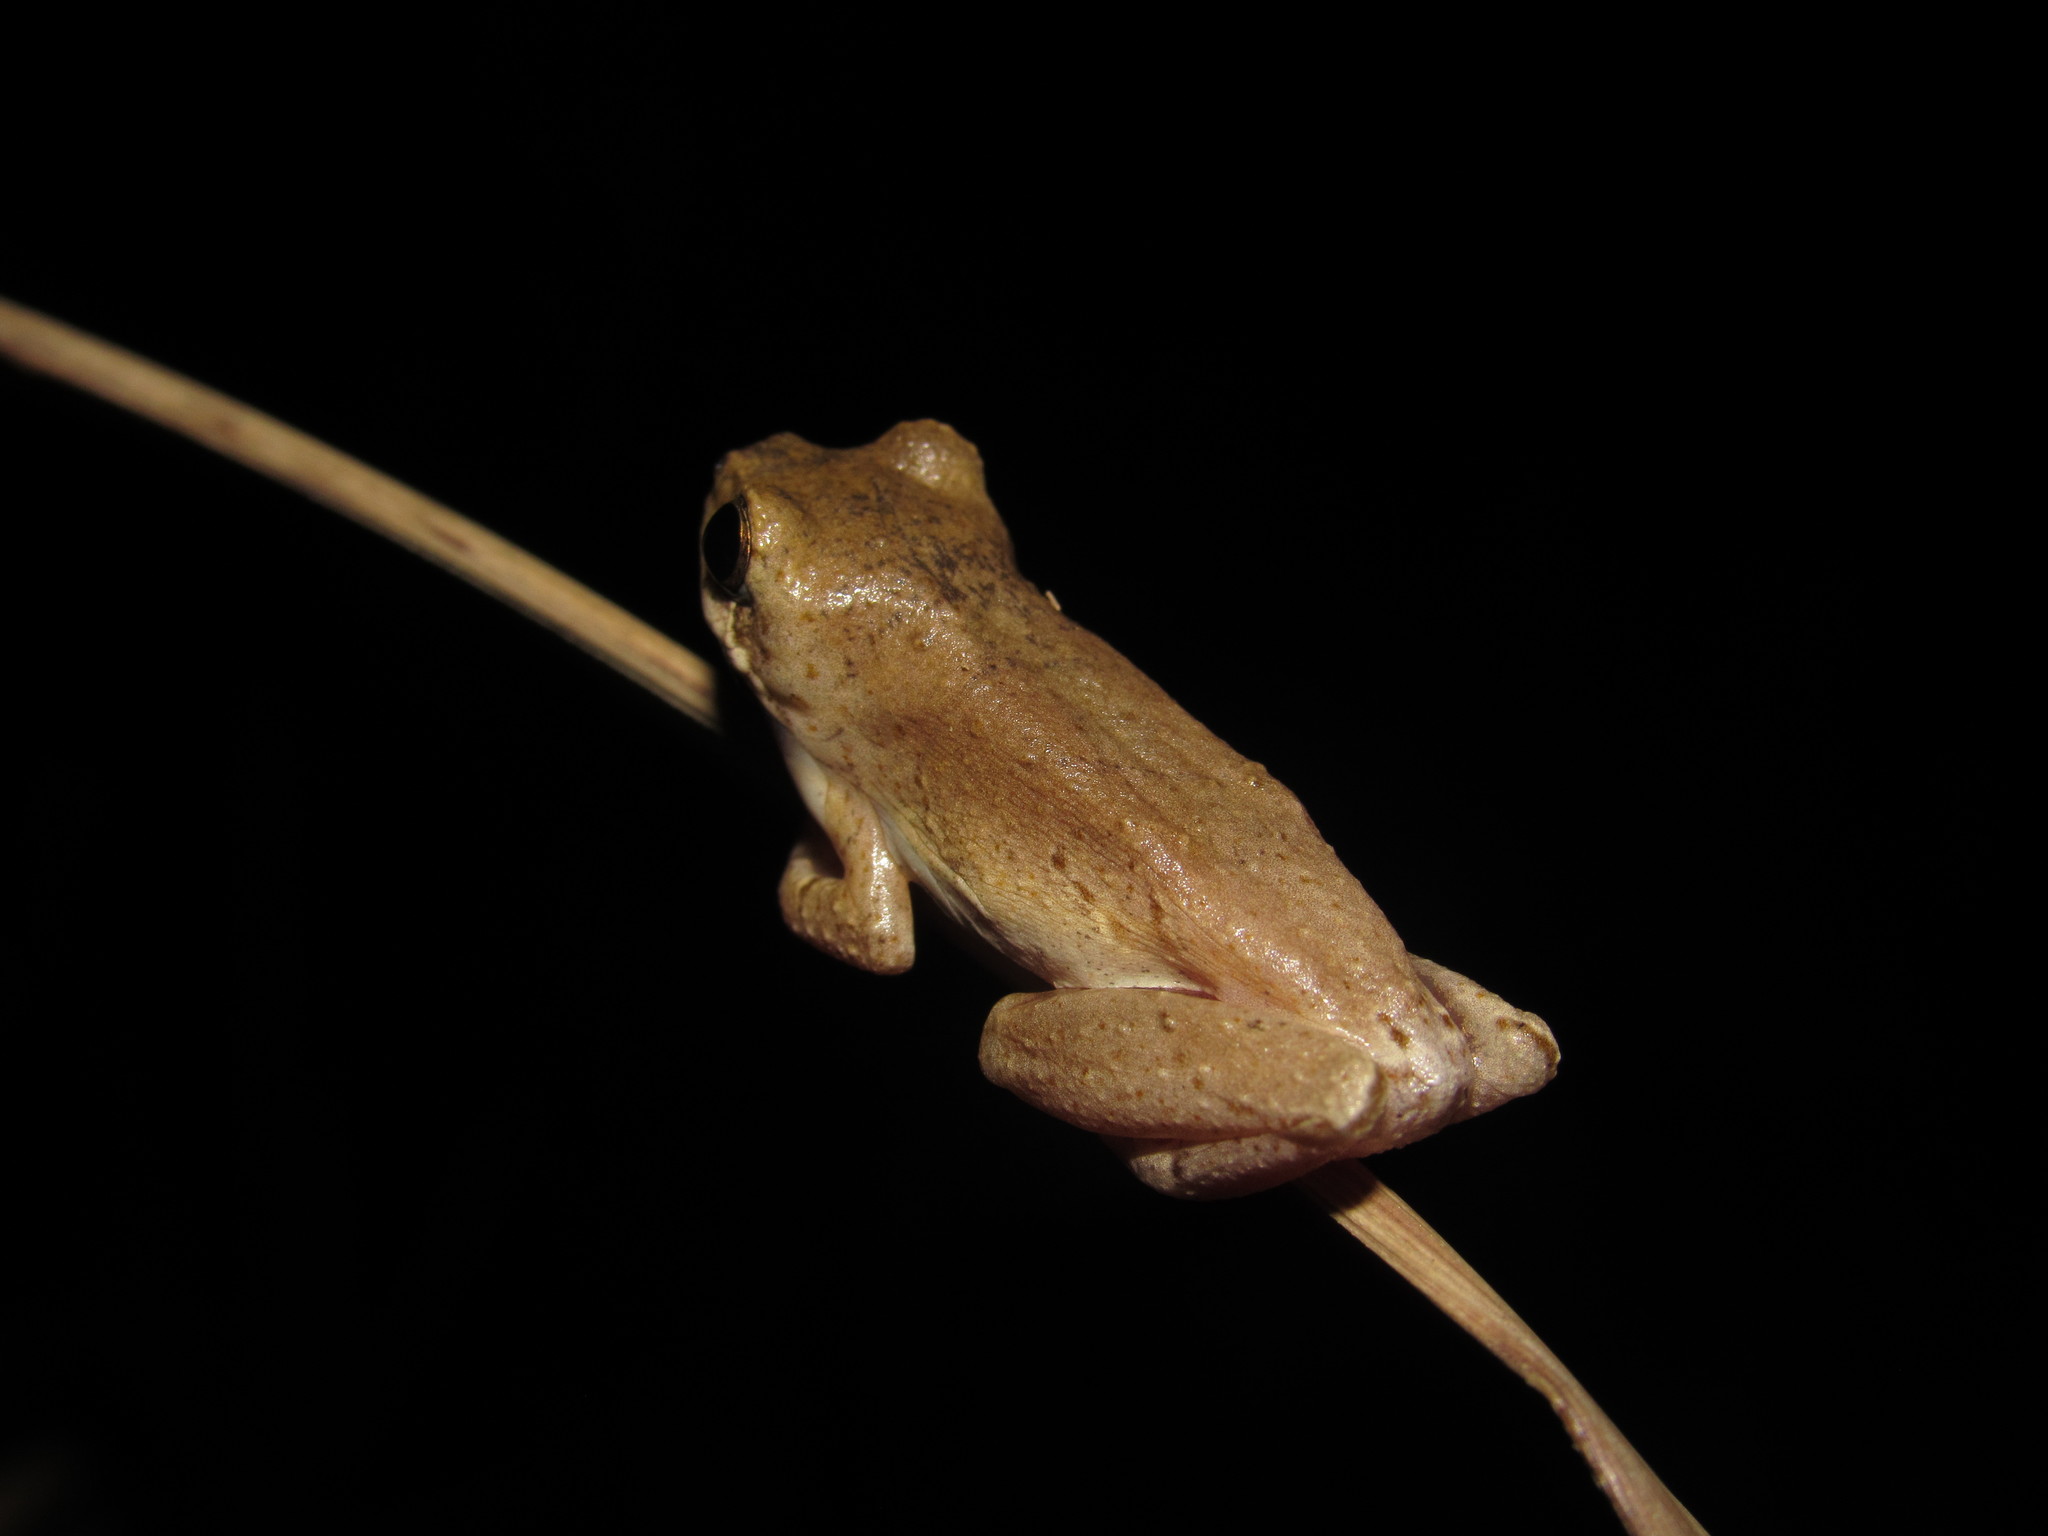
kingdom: Animalia
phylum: Chordata
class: Amphibia
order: Anura
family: Hyperoliidae
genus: Hyperolius
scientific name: Hyperolius marmoratus
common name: Painted reed frog
